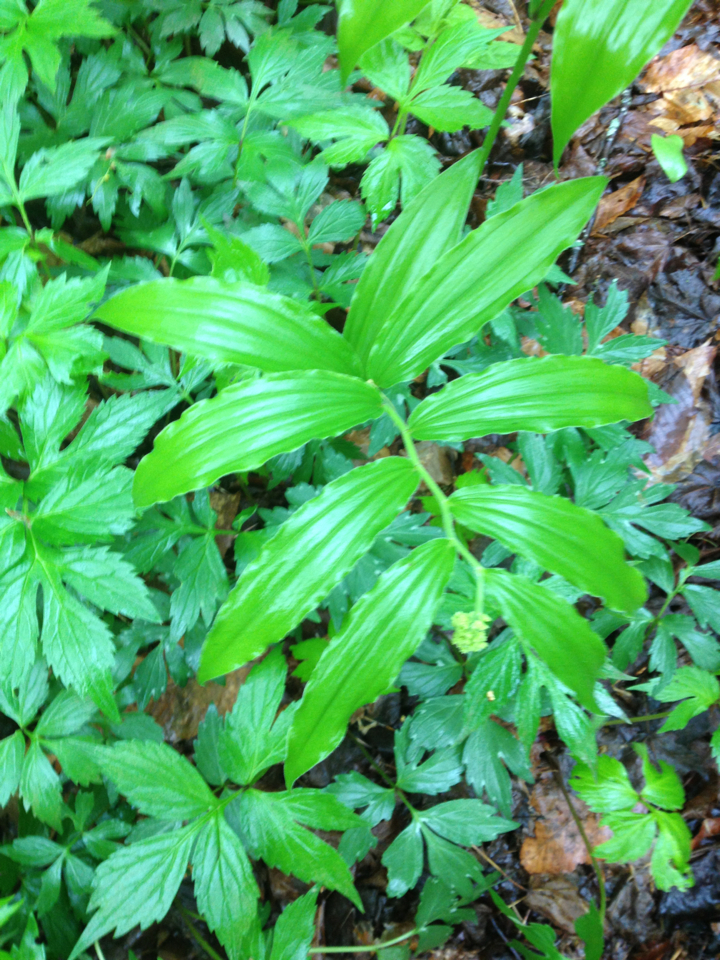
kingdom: Plantae
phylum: Tracheophyta
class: Liliopsida
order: Asparagales
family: Asparagaceae
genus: Maianthemum
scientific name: Maianthemum racemosum
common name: False spikenard
